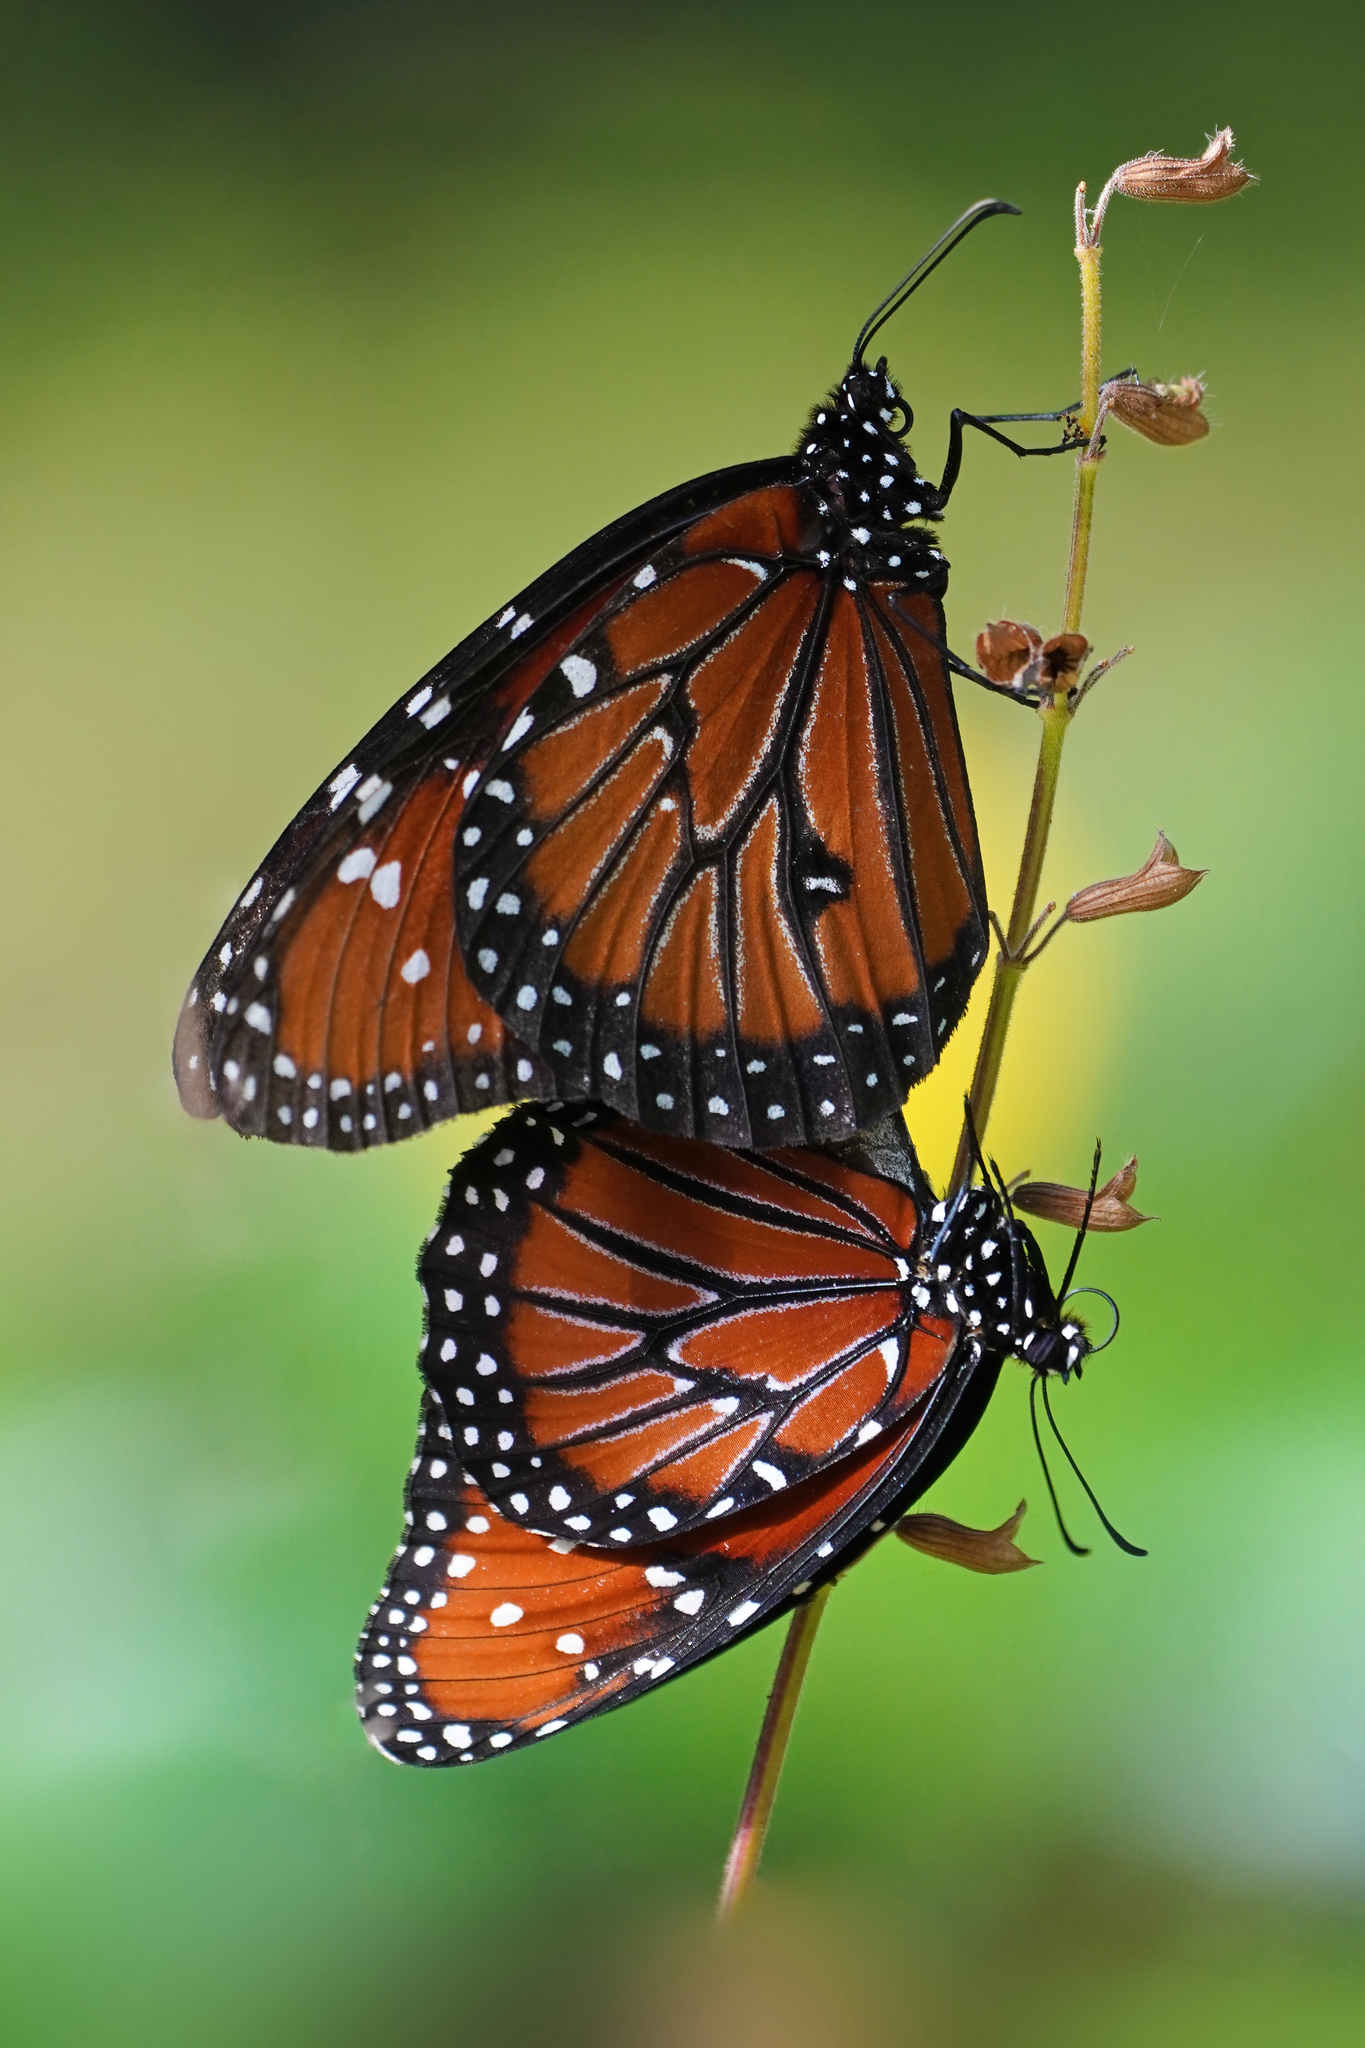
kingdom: Animalia
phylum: Arthropoda
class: Insecta
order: Lepidoptera
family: Nymphalidae
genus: Danaus
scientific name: Danaus gilippus
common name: Queen
